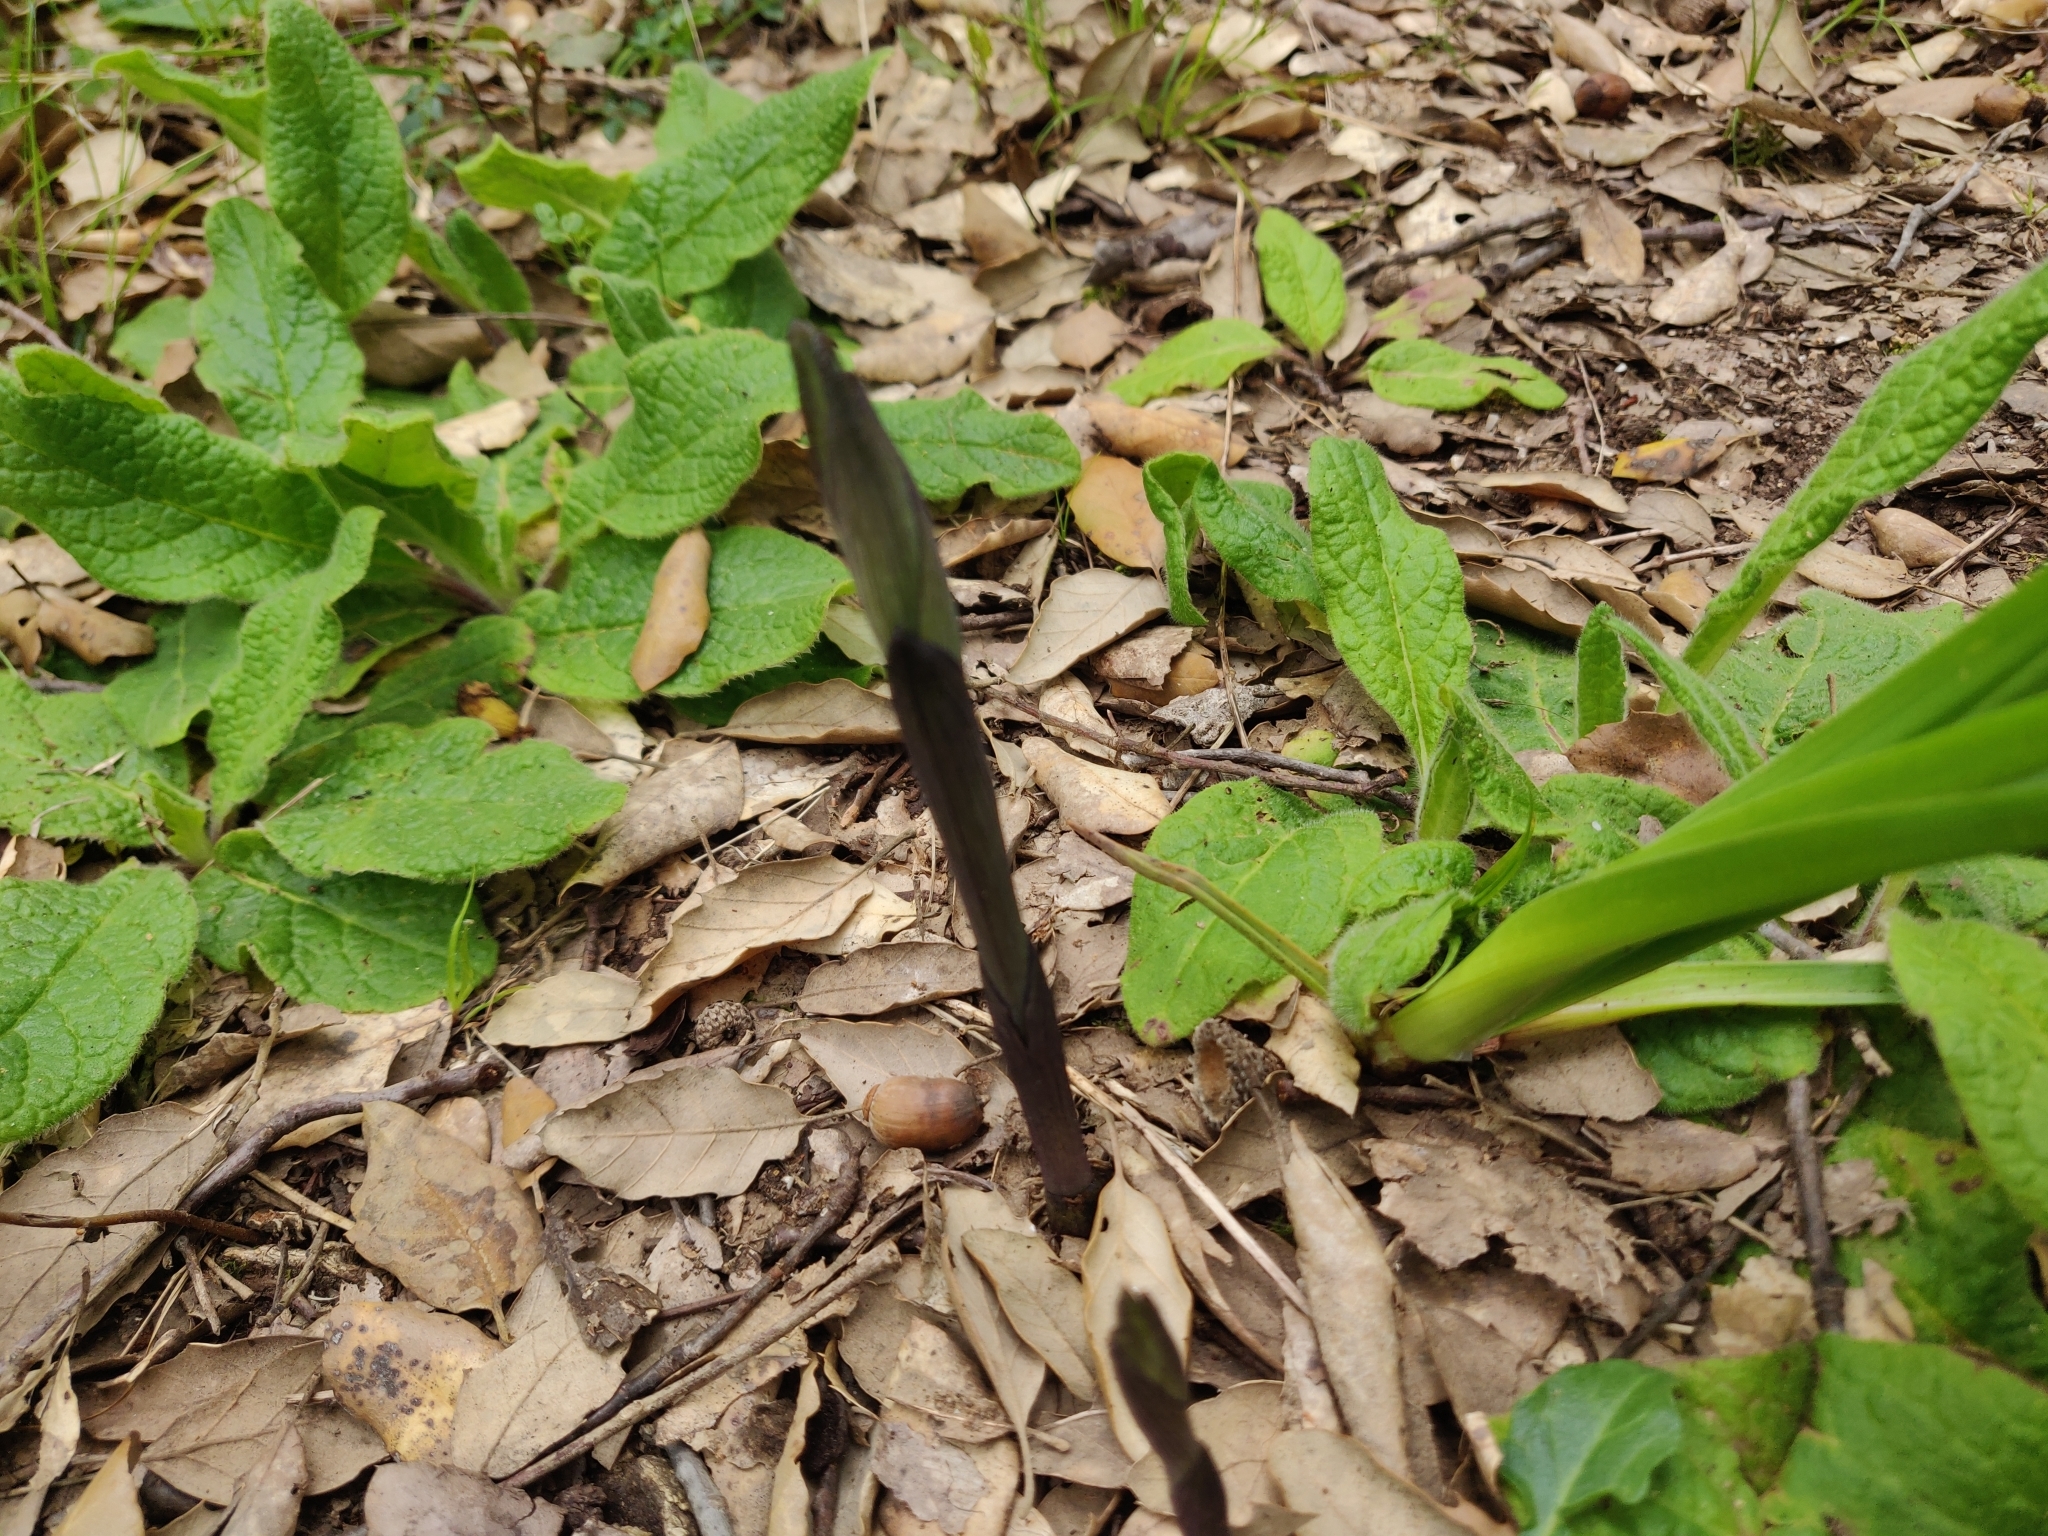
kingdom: Plantae
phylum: Tracheophyta
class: Liliopsida
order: Asparagales
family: Orchidaceae
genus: Limodorum
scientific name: Limodorum abortivum
